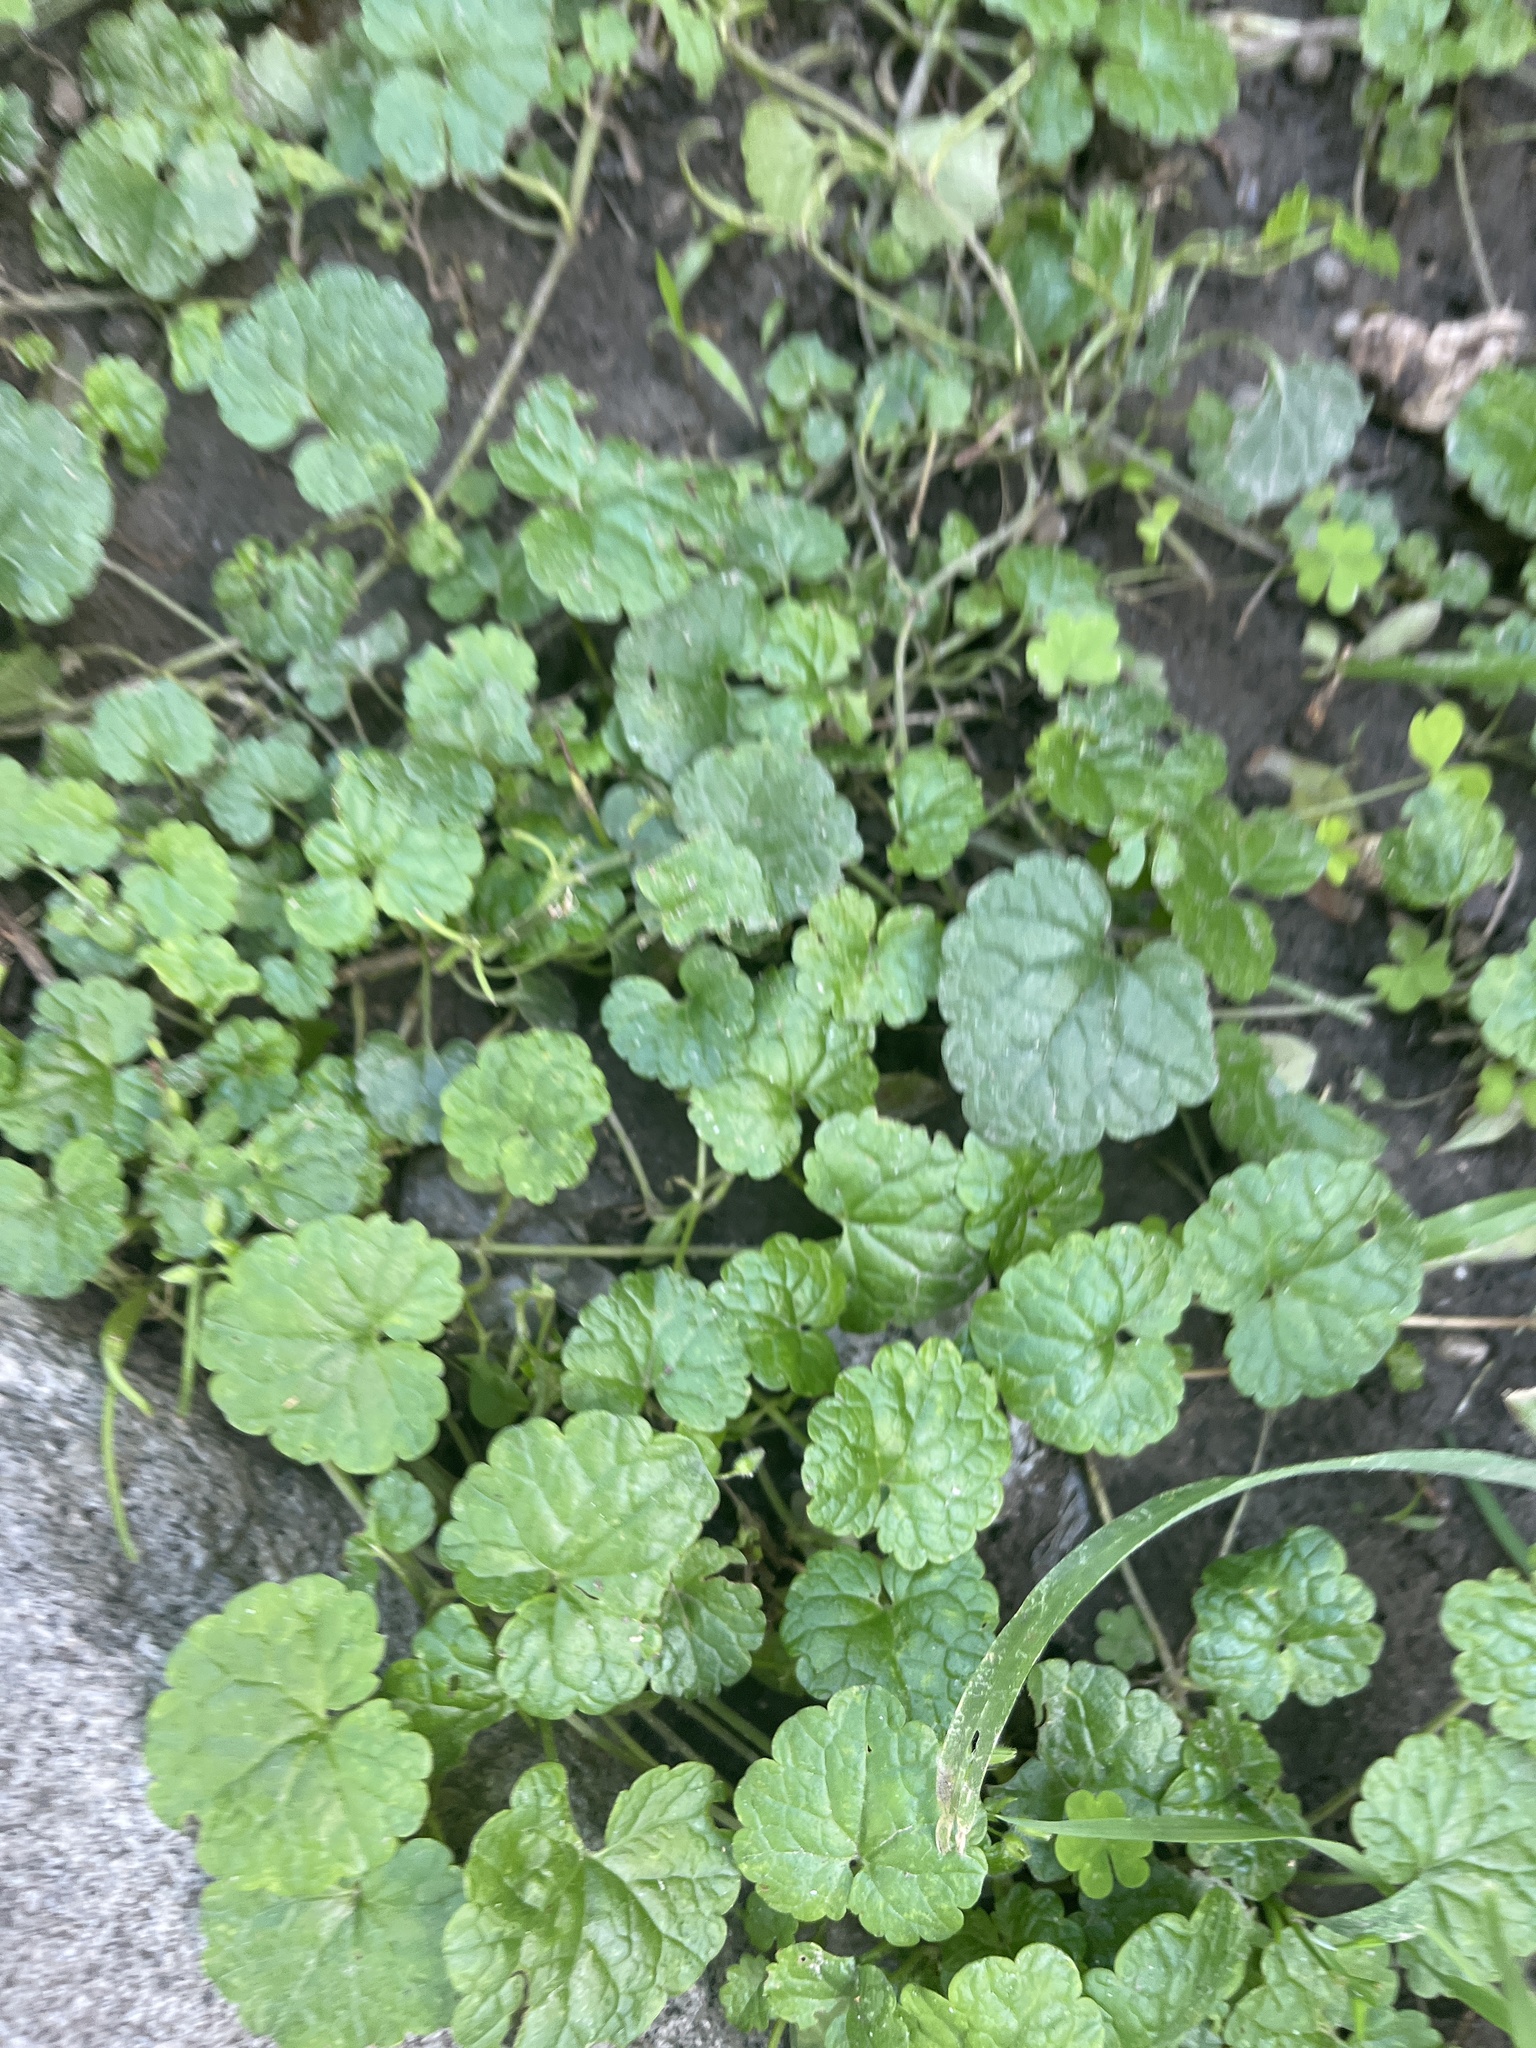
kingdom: Plantae
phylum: Tracheophyta
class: Magnoliopsida
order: Lamiales
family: Lamiaceae
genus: Glechoma
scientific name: Glechoma hederacea
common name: Ground ivy
